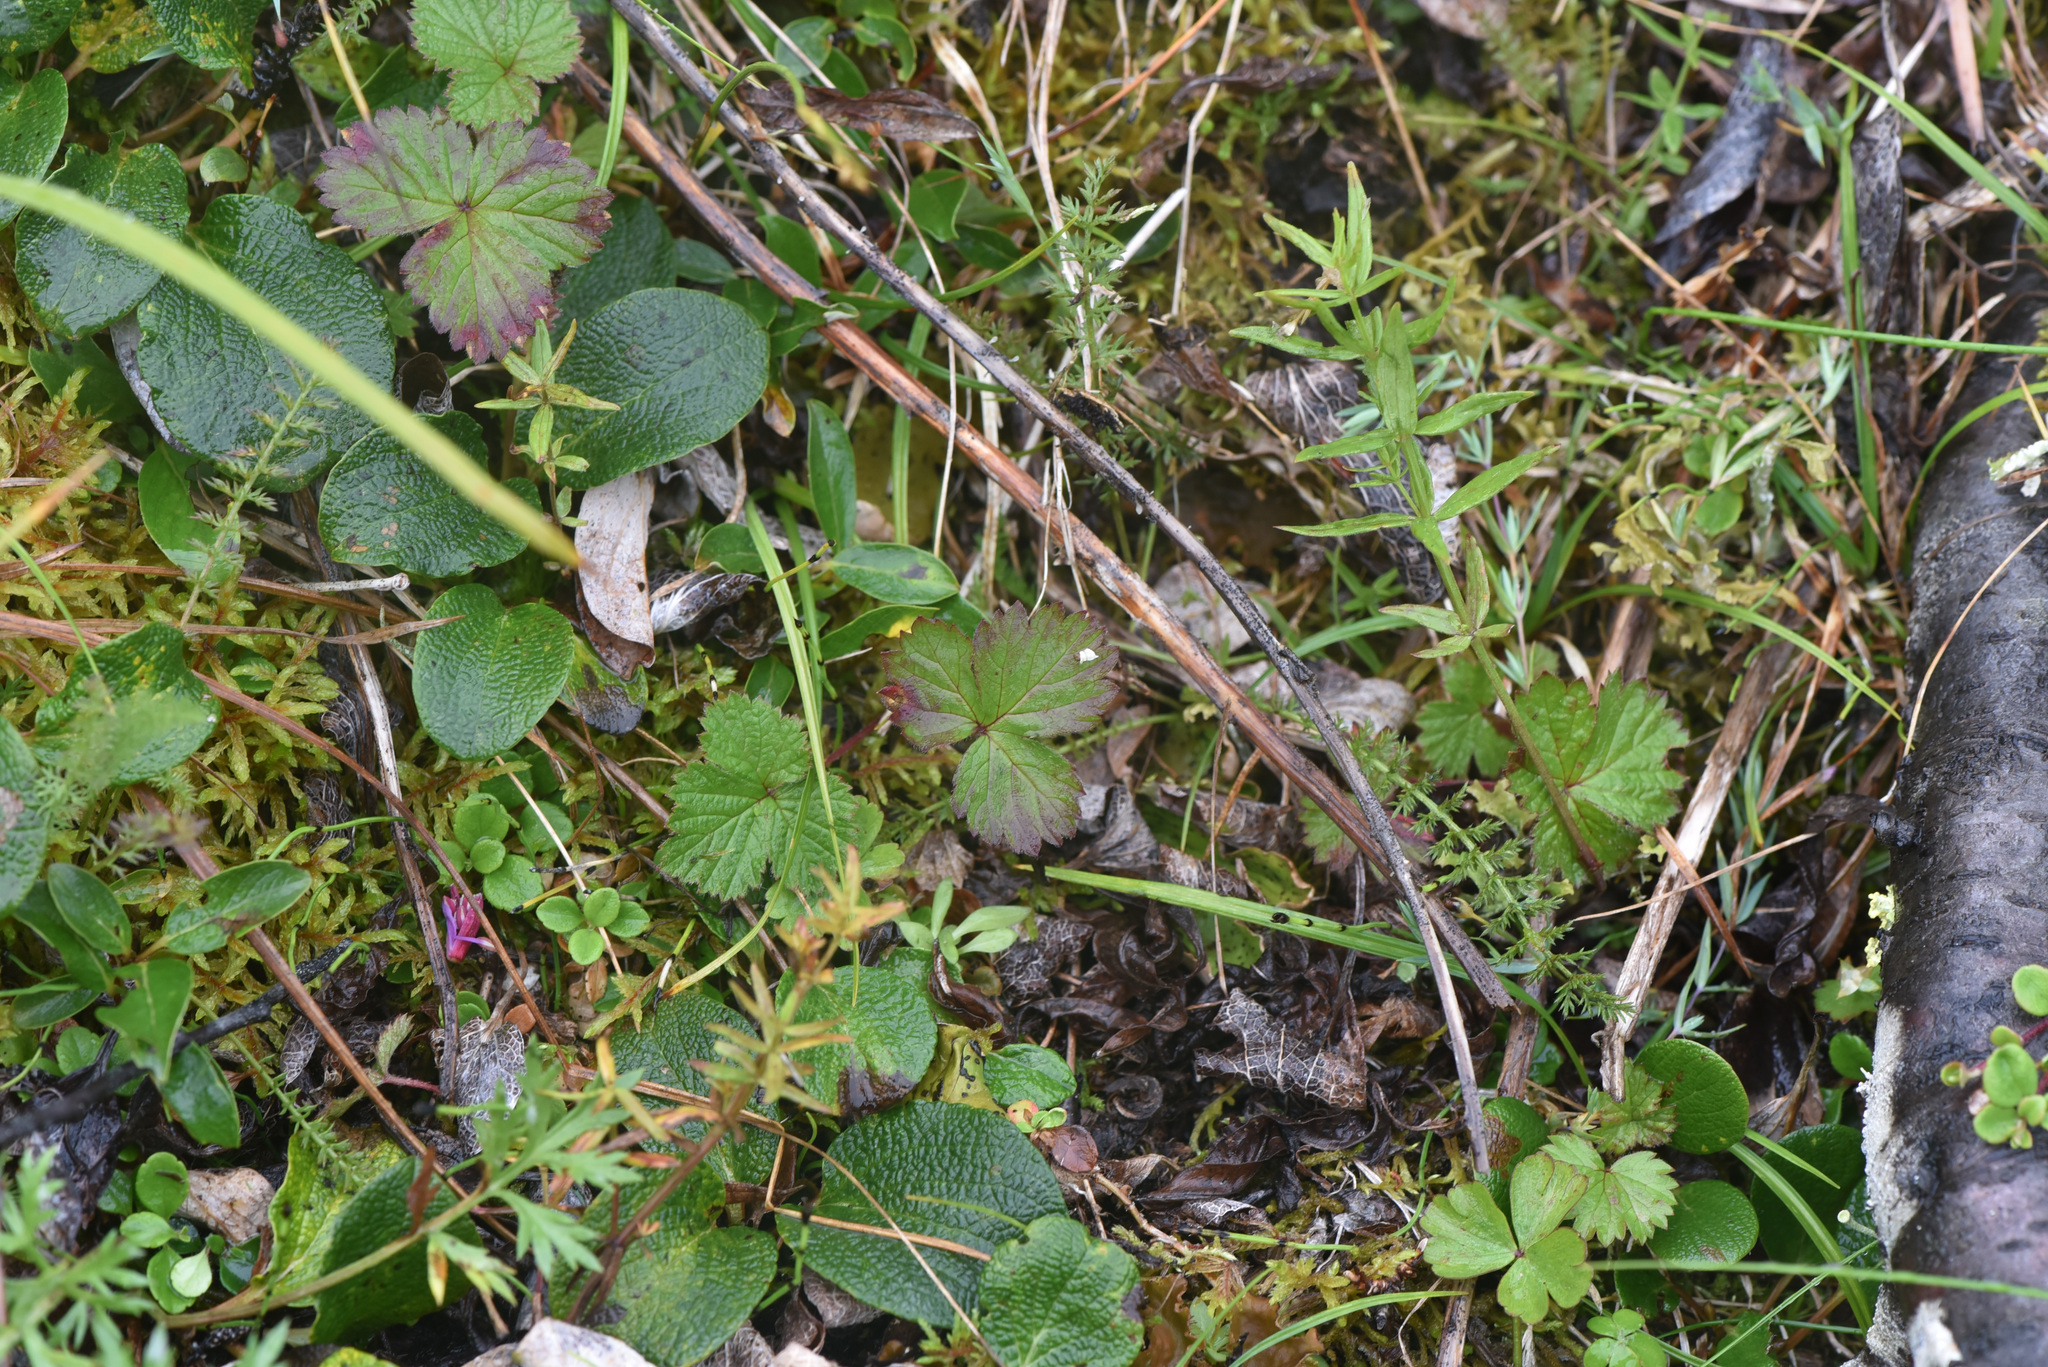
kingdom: Plantae
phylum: Tracheophyta
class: Magnoliopsida
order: Rosales
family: Rosaceae
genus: Rubus
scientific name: Rubus arcticus
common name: Arctic bramble
